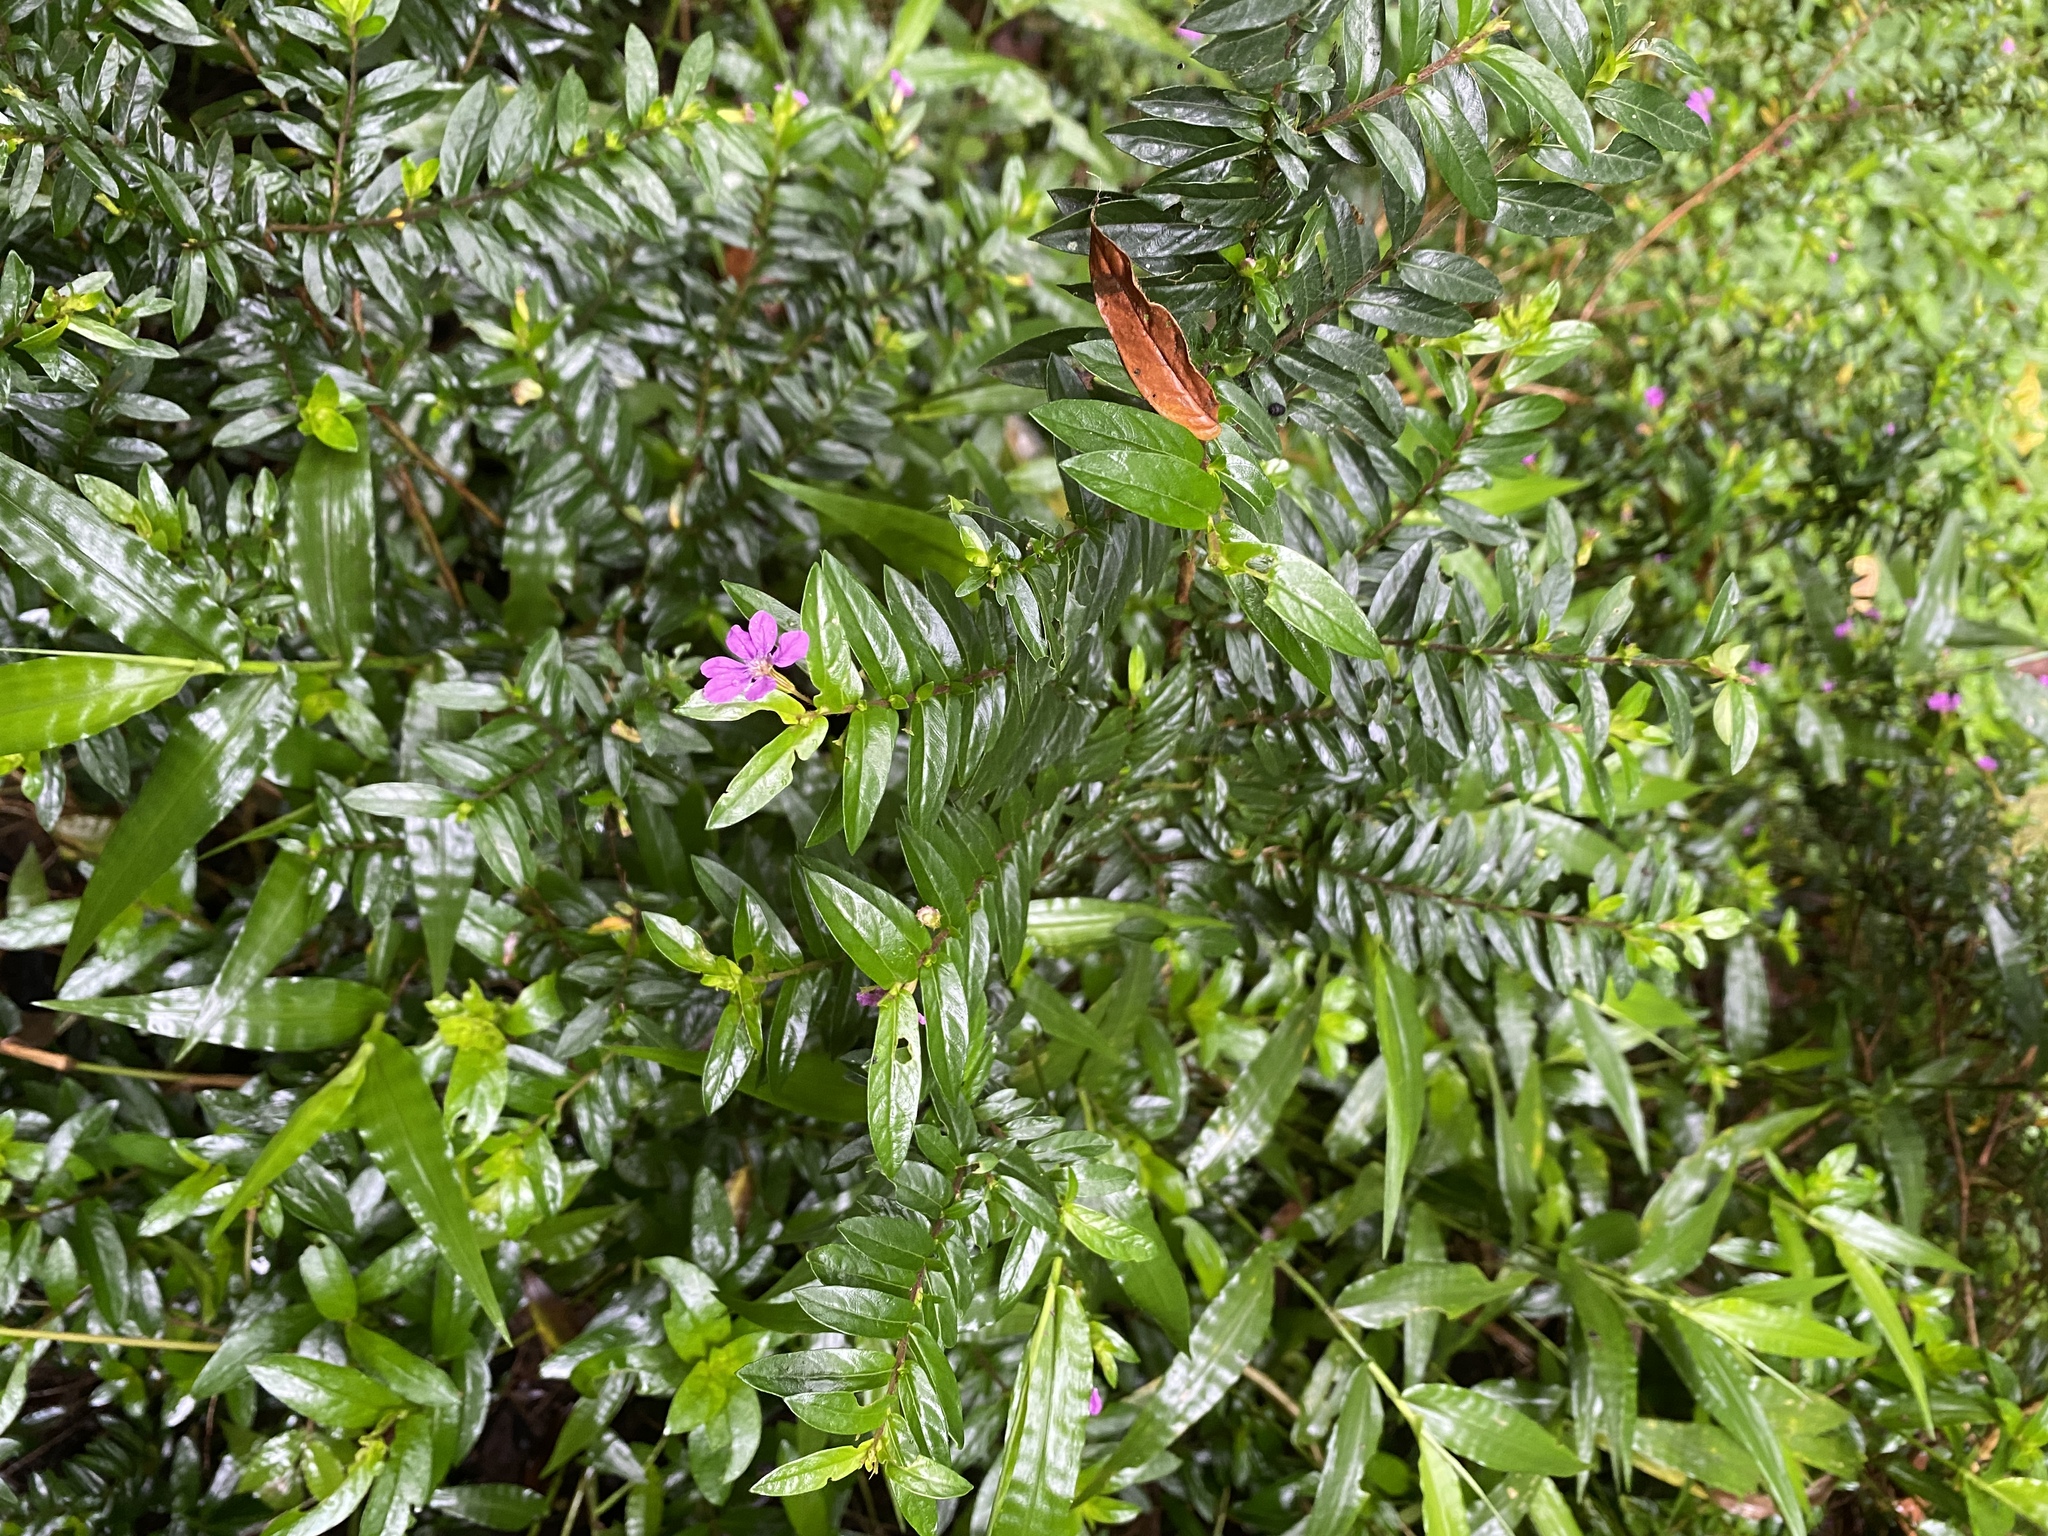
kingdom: Plantae
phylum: Tracheophyta
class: Magnoliopsida
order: Myrtales
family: Lythraceae
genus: Cuphea
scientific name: Cuphea hyssopifolia
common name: False heather
